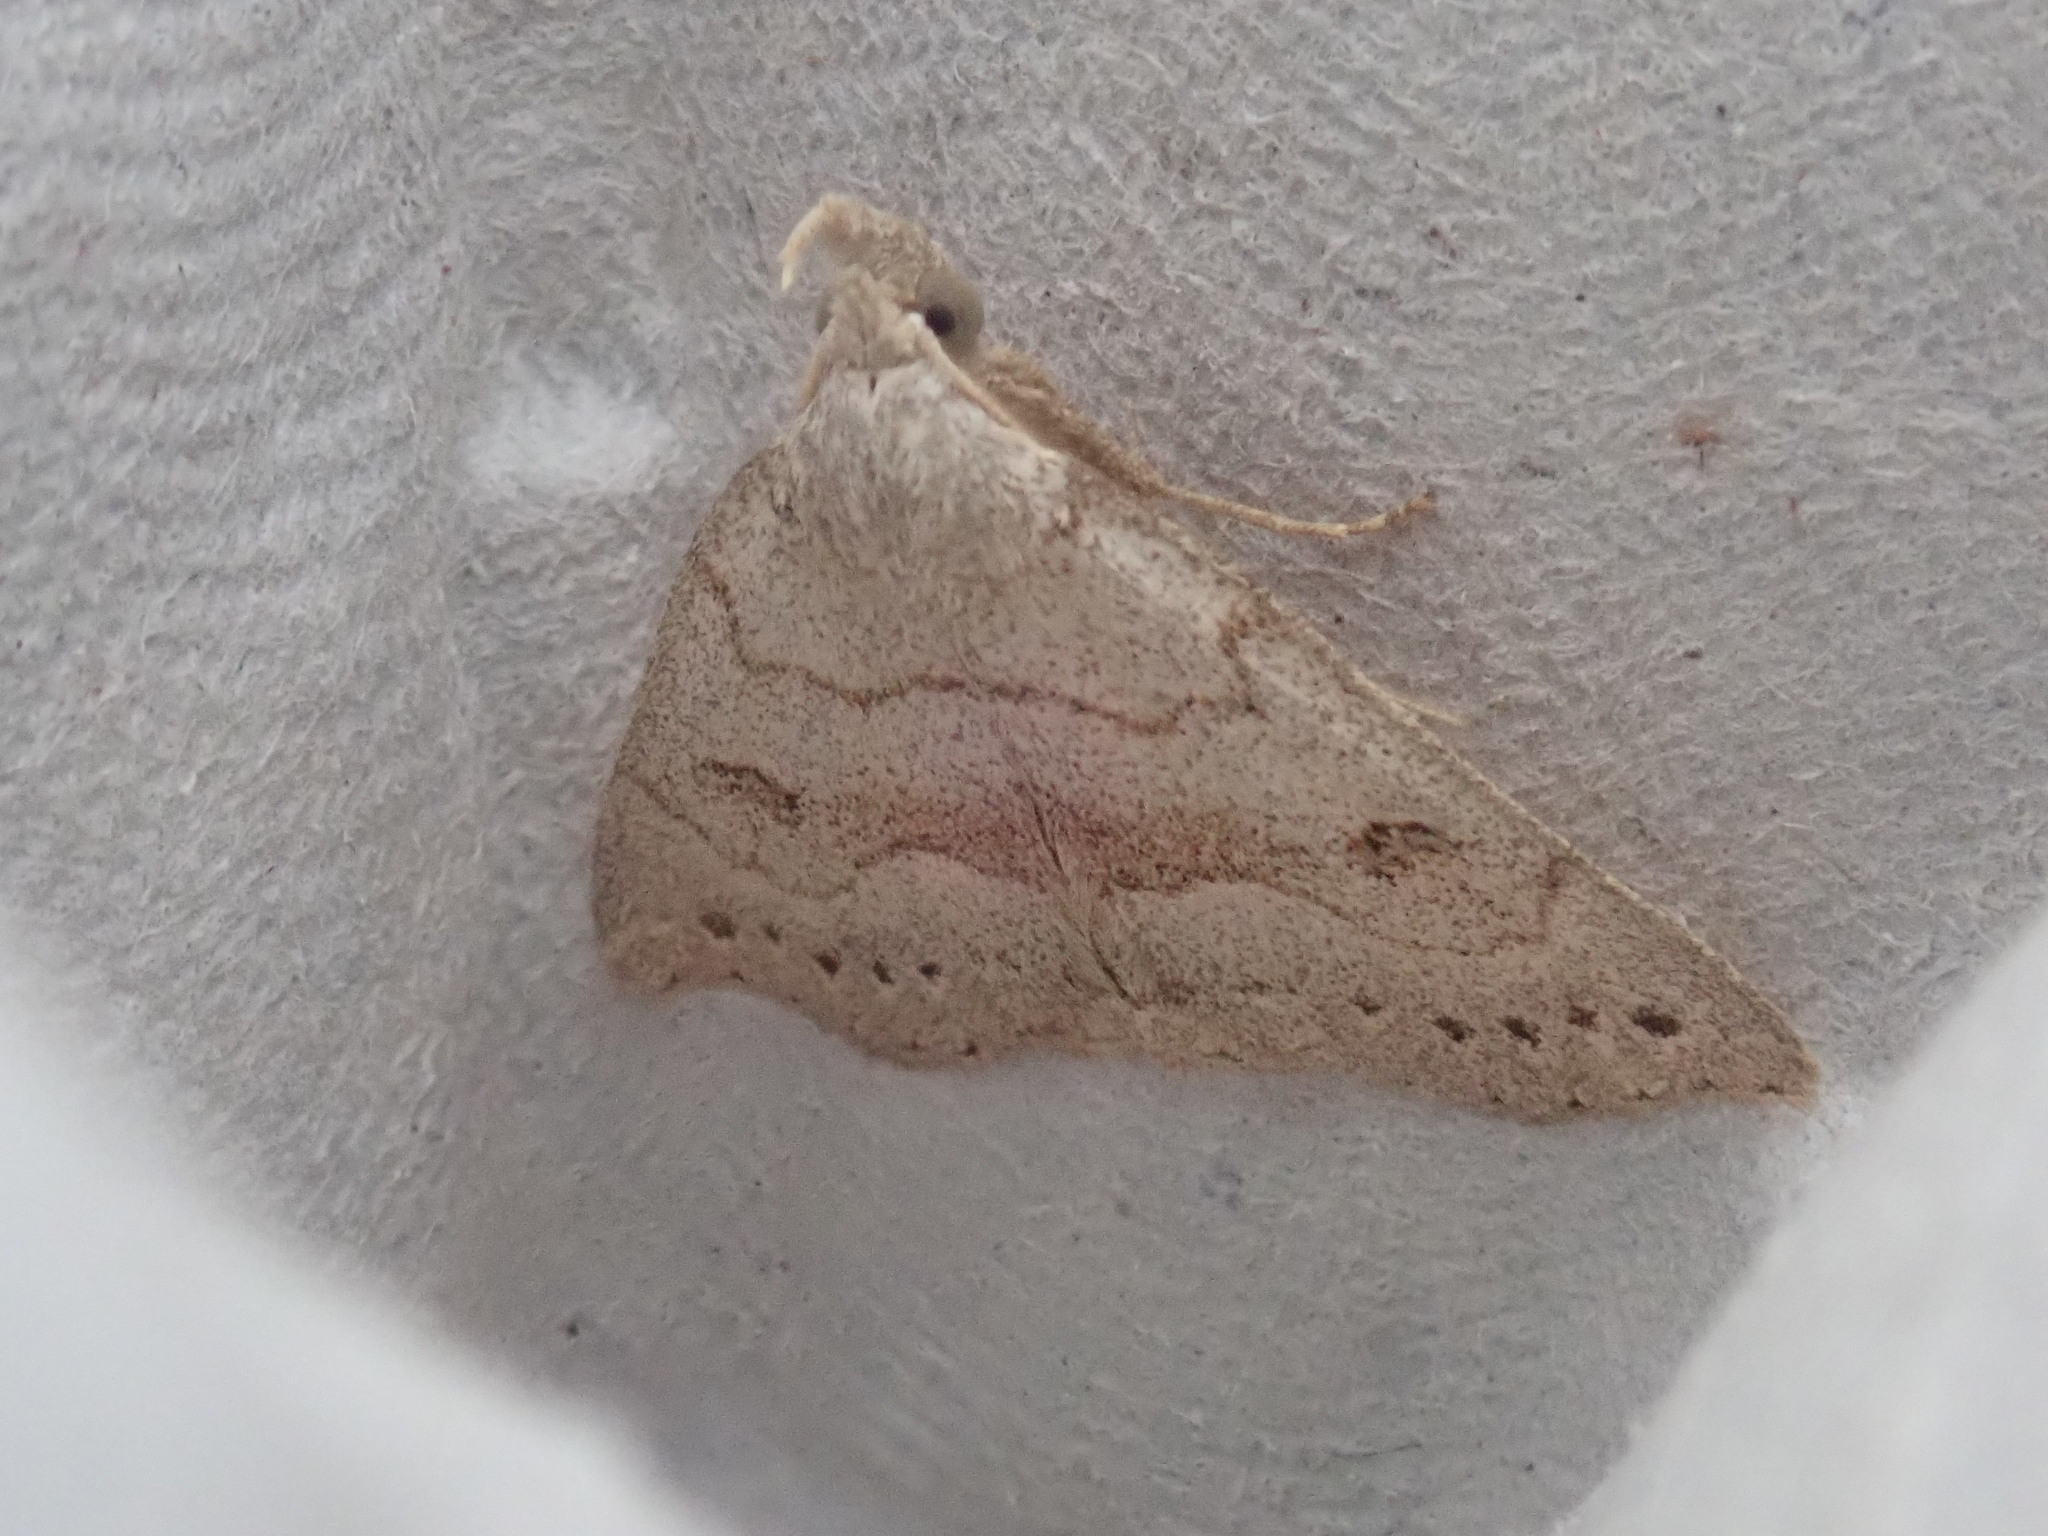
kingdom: Animalia
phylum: Arthropoda
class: Insecta
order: Lepidoptera
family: Erebidae
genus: Macrochilo
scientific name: Macrochilo morbidalis
